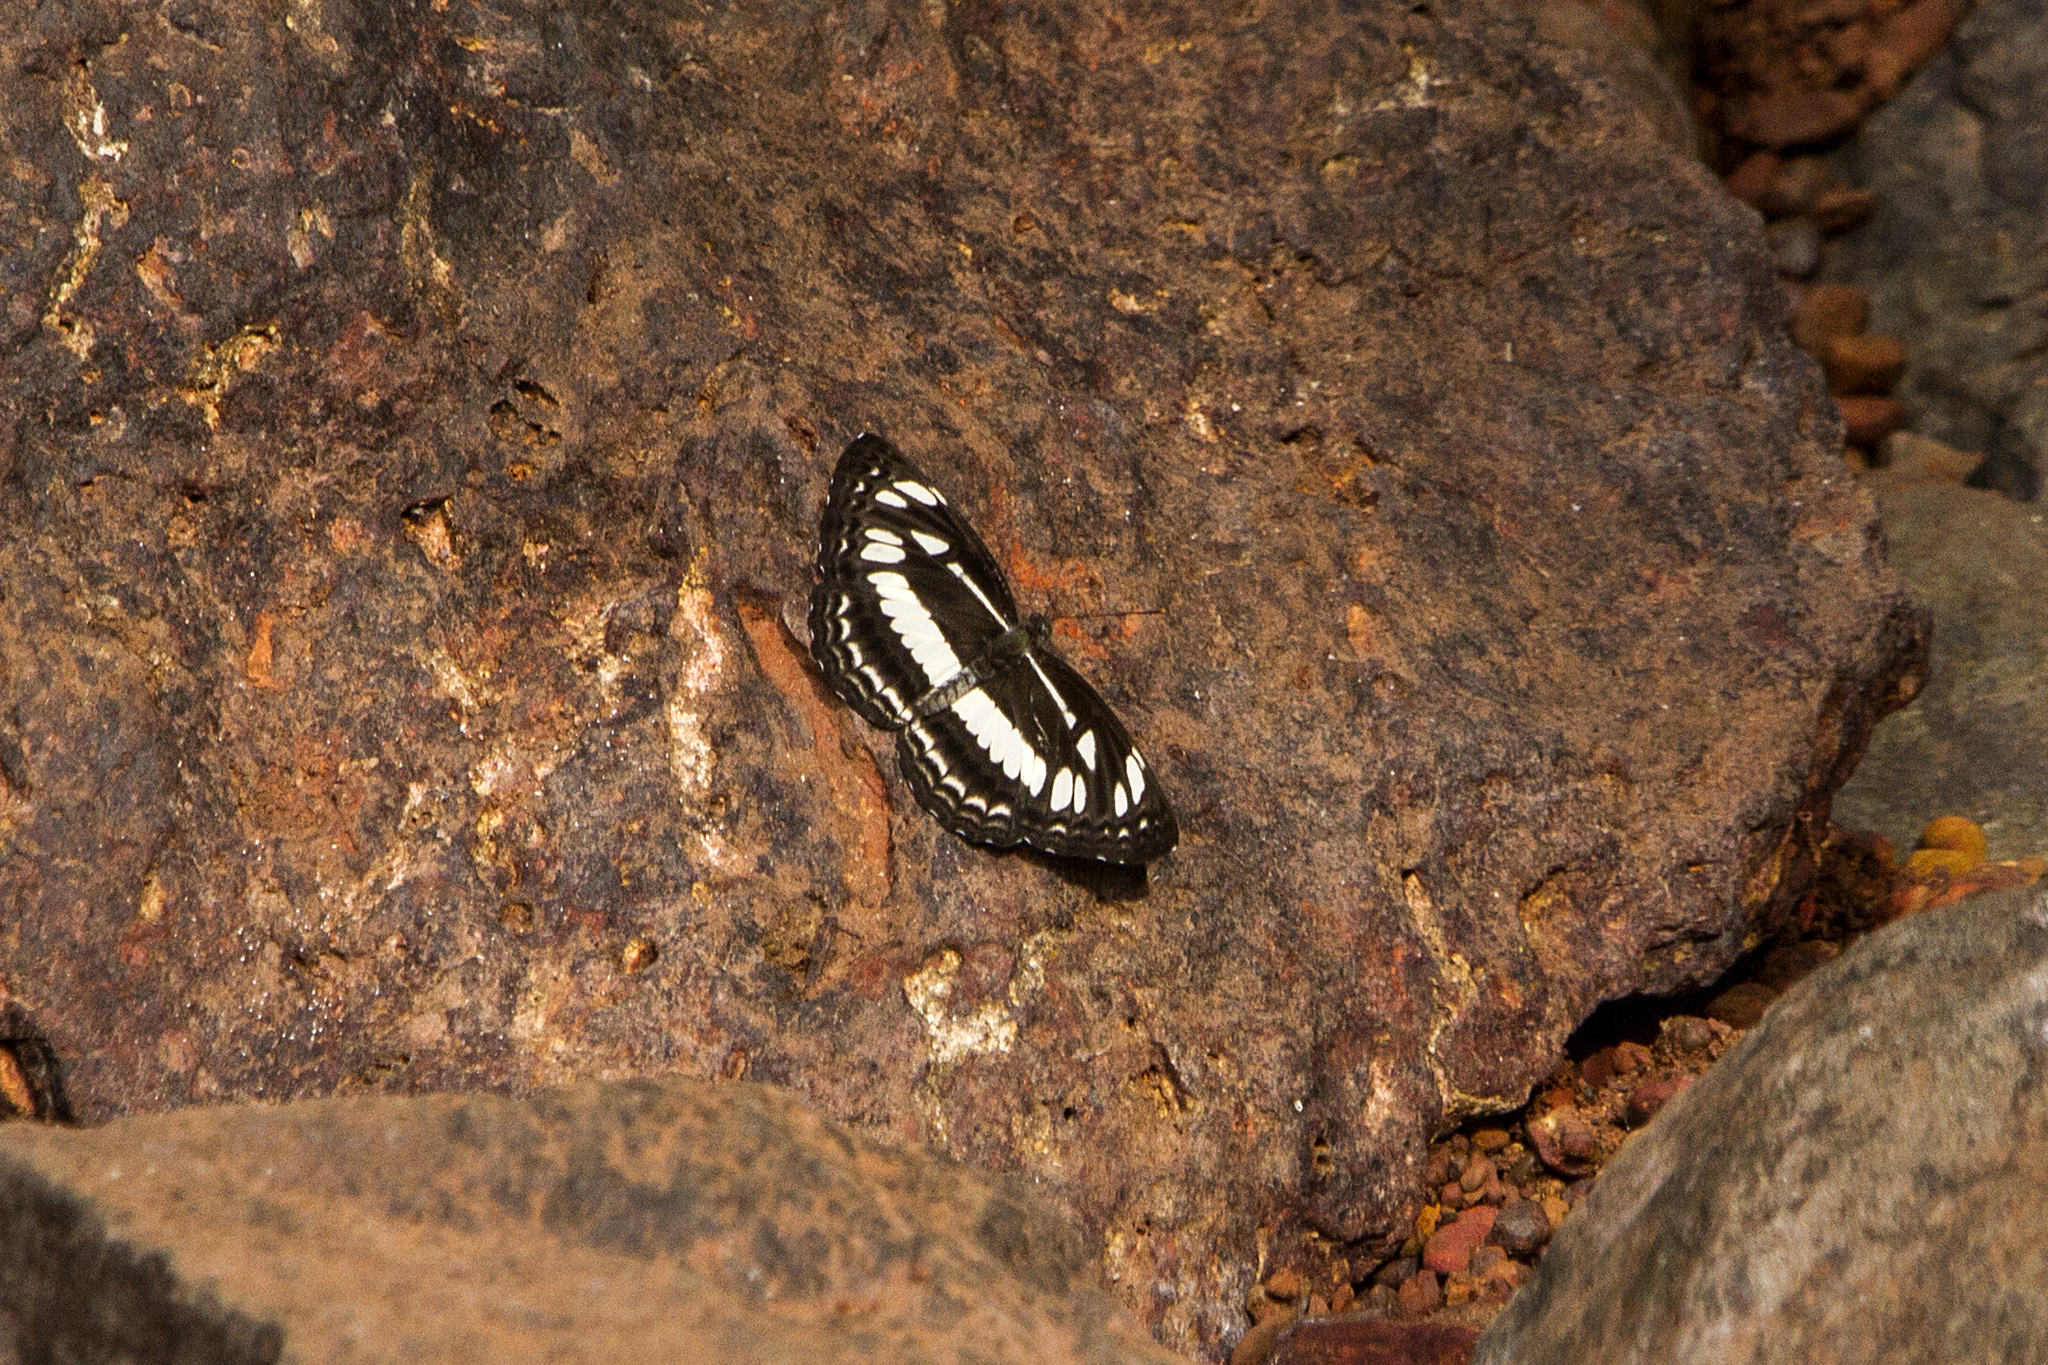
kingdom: Animalia
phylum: Arthropoda
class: Insecta
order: Lepidoptera
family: Nymphalidae
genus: Neptis
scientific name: Neptis hylas
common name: Common sailer
